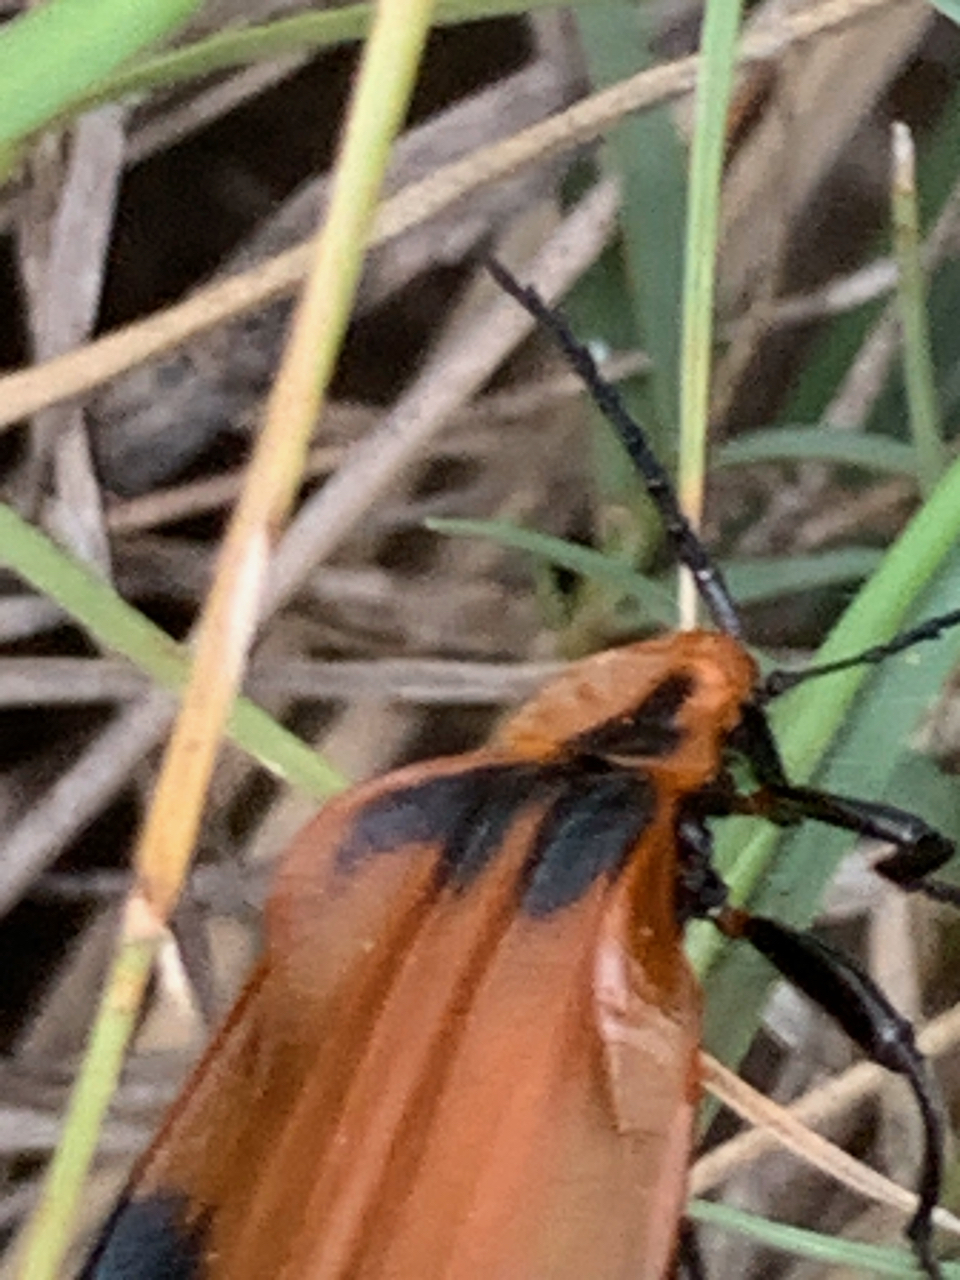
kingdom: Animalia
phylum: Arthropoda
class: Insecta
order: Coleoptera
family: Lycidae
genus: Lycus
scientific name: Lycus
